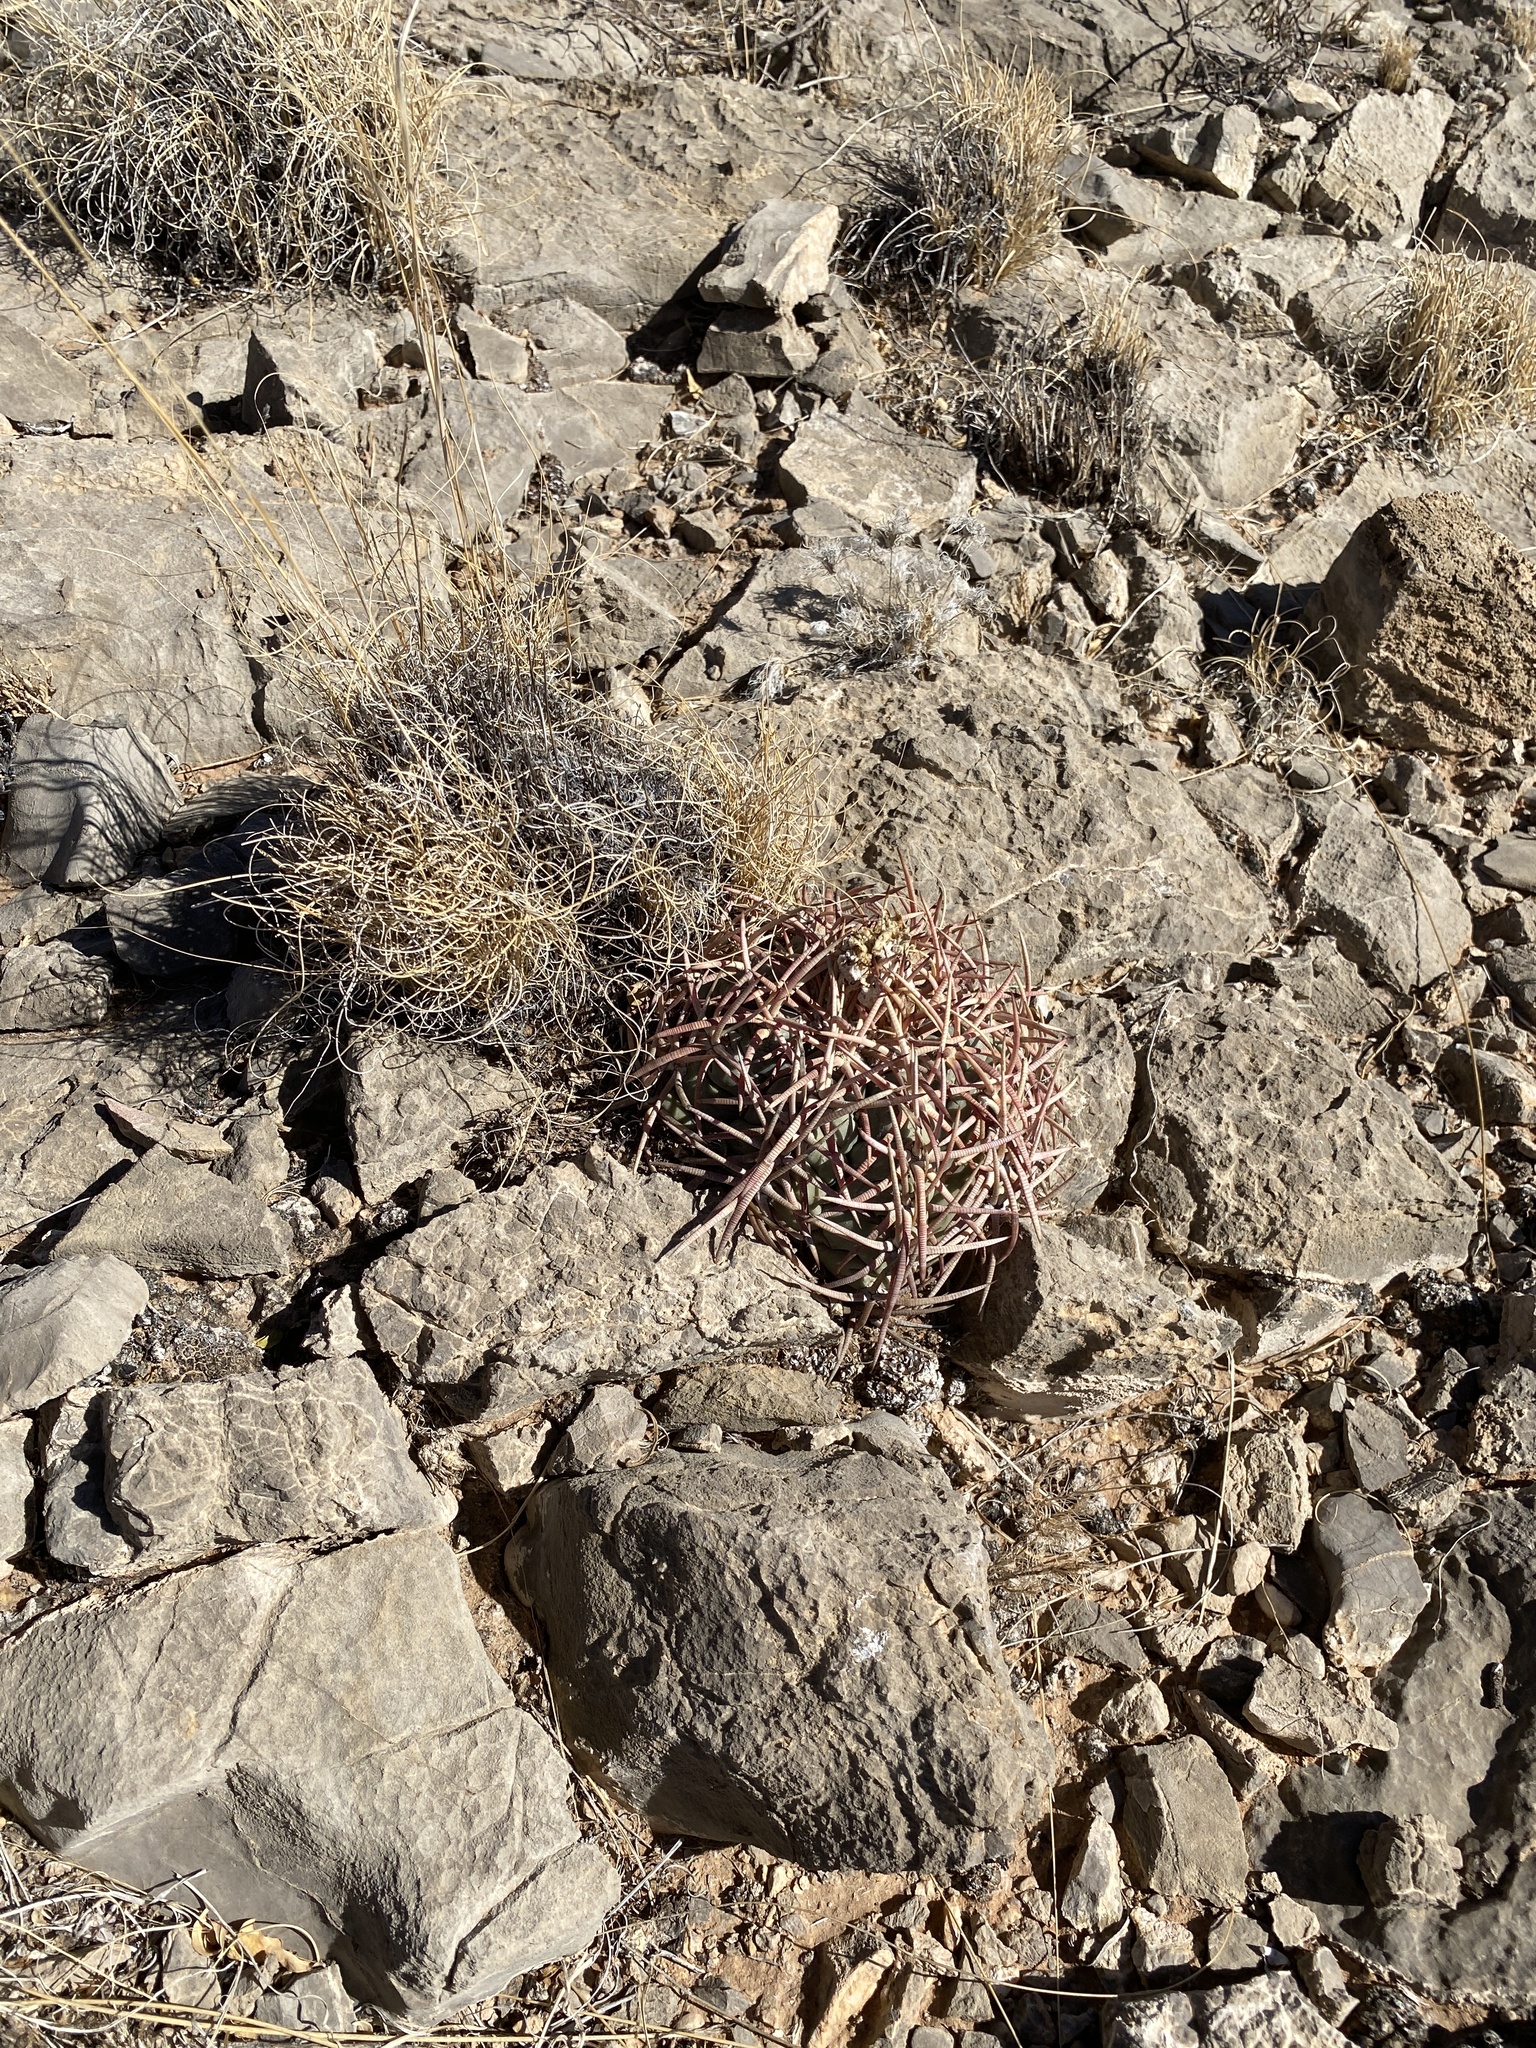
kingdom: Plantae
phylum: Tracheophyta
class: Magnoliopsida
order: Caryophyllales
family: Cactaceae
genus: Echinocactus
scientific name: Echinocactus horizonthalonius
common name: Devilshead
